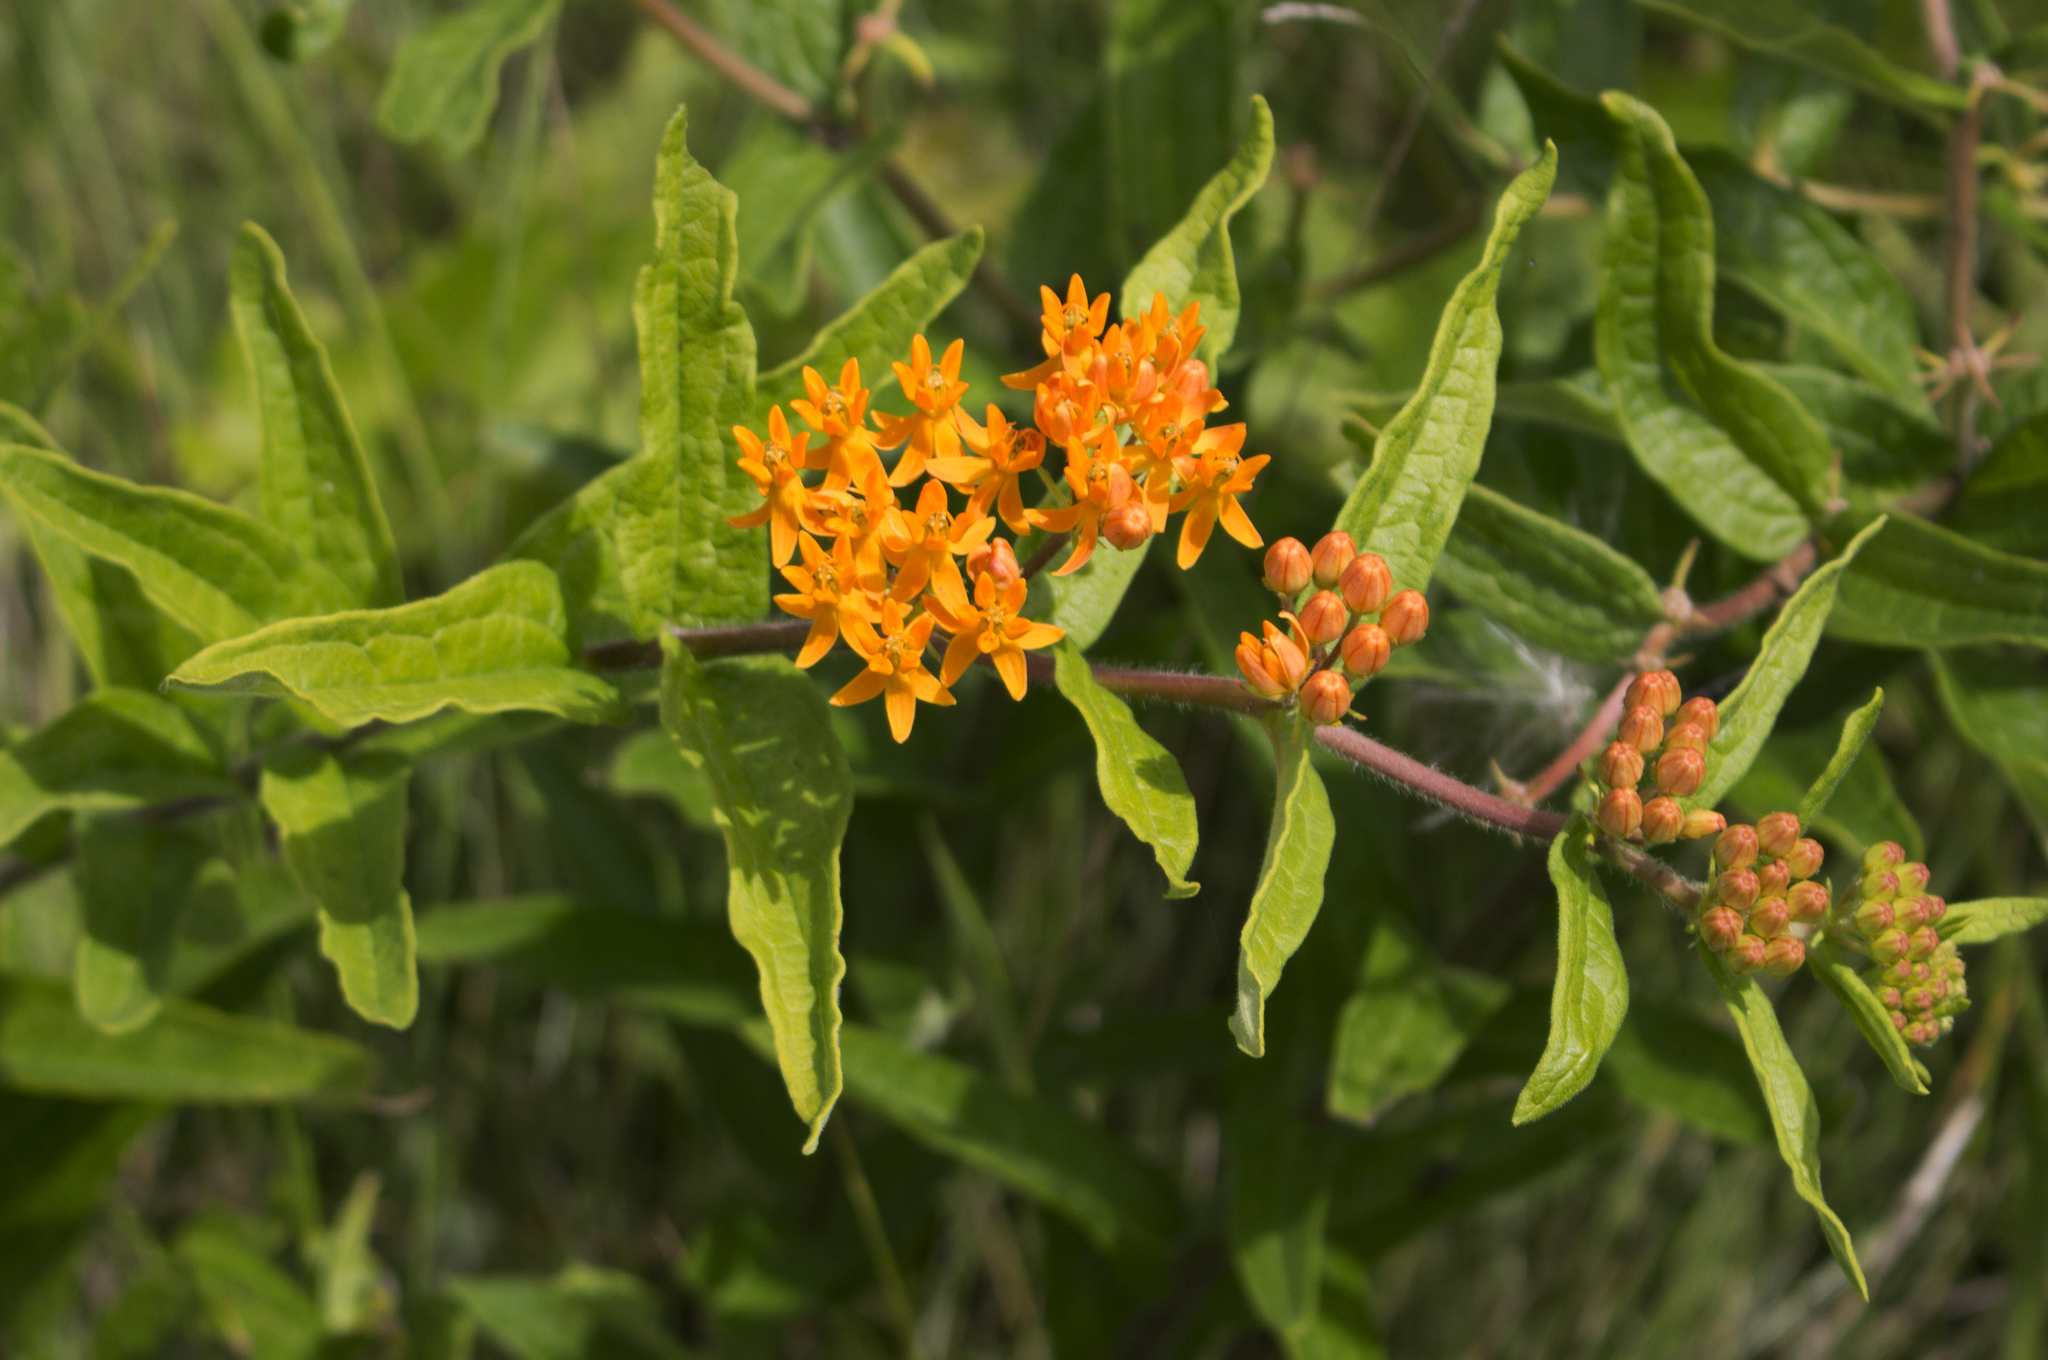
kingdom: Plantae
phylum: Tracheophyta
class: Magnoliopsida
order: Gentianales
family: Apocynaceae
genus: Asclepias
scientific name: Asclepias tuberosa
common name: Butterfly milkweed
